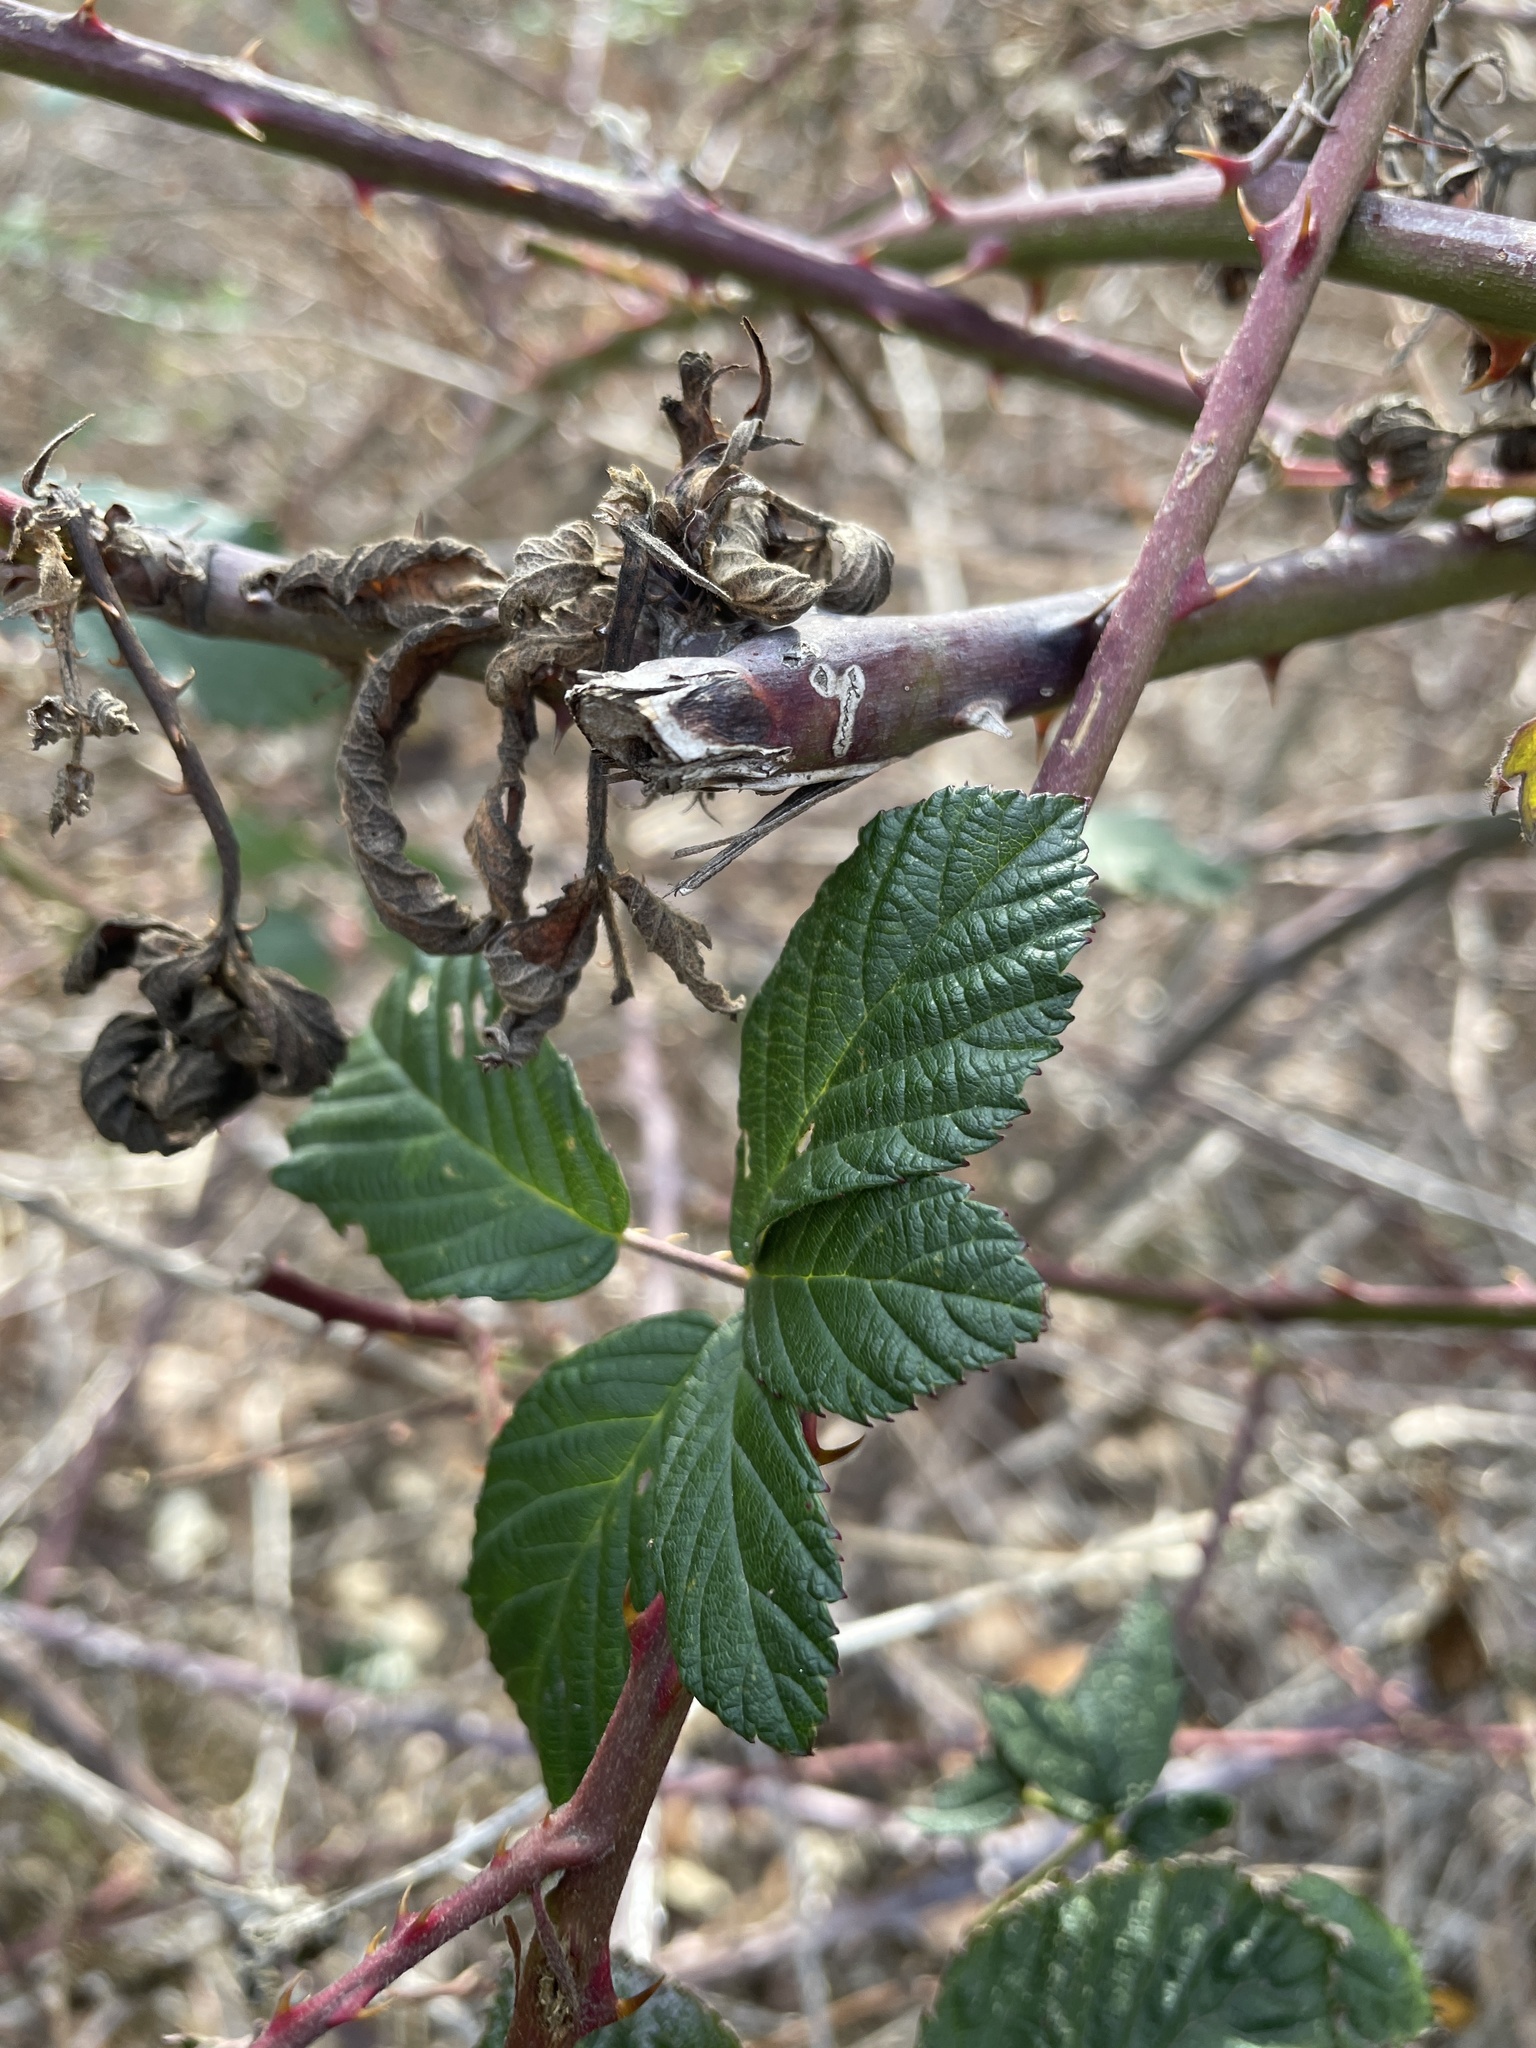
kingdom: Plantae
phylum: Tracheophyta
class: Magnoliopsida
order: Rosales
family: Rosaceae
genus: Rubus
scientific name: Rubus armeniacus
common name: Himalayan blackberry
